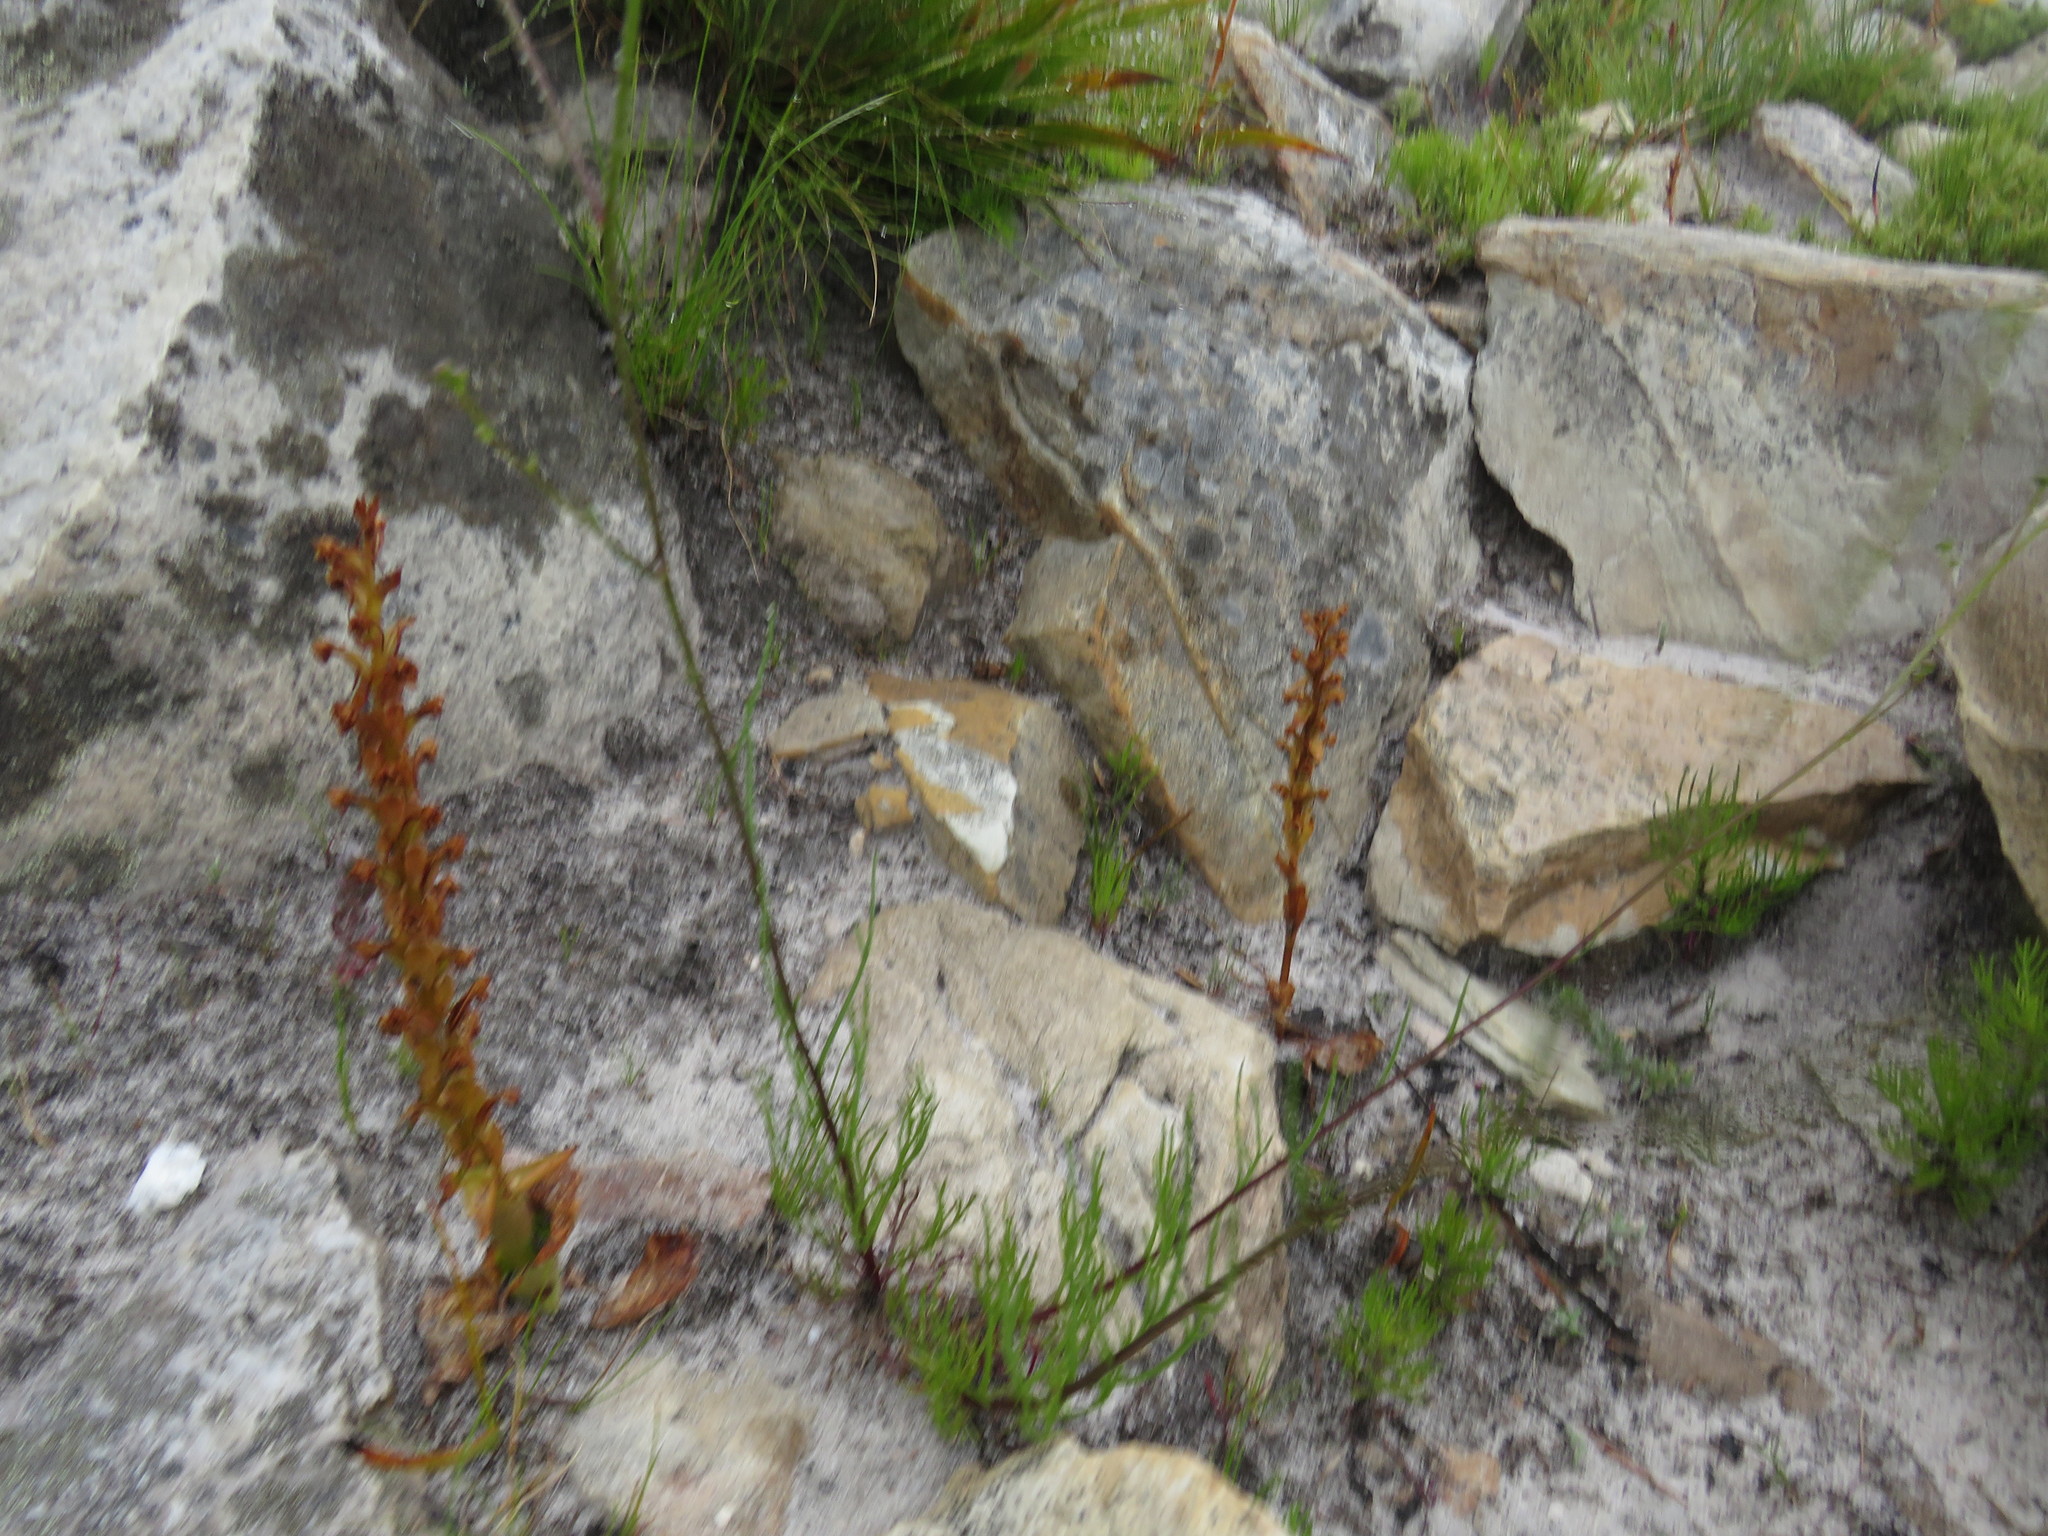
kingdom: Plantae
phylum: Tracheophyta
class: Liliopsida
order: Asparagales
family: Orchidaceae
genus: Satyrium
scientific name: Satyrium humile
